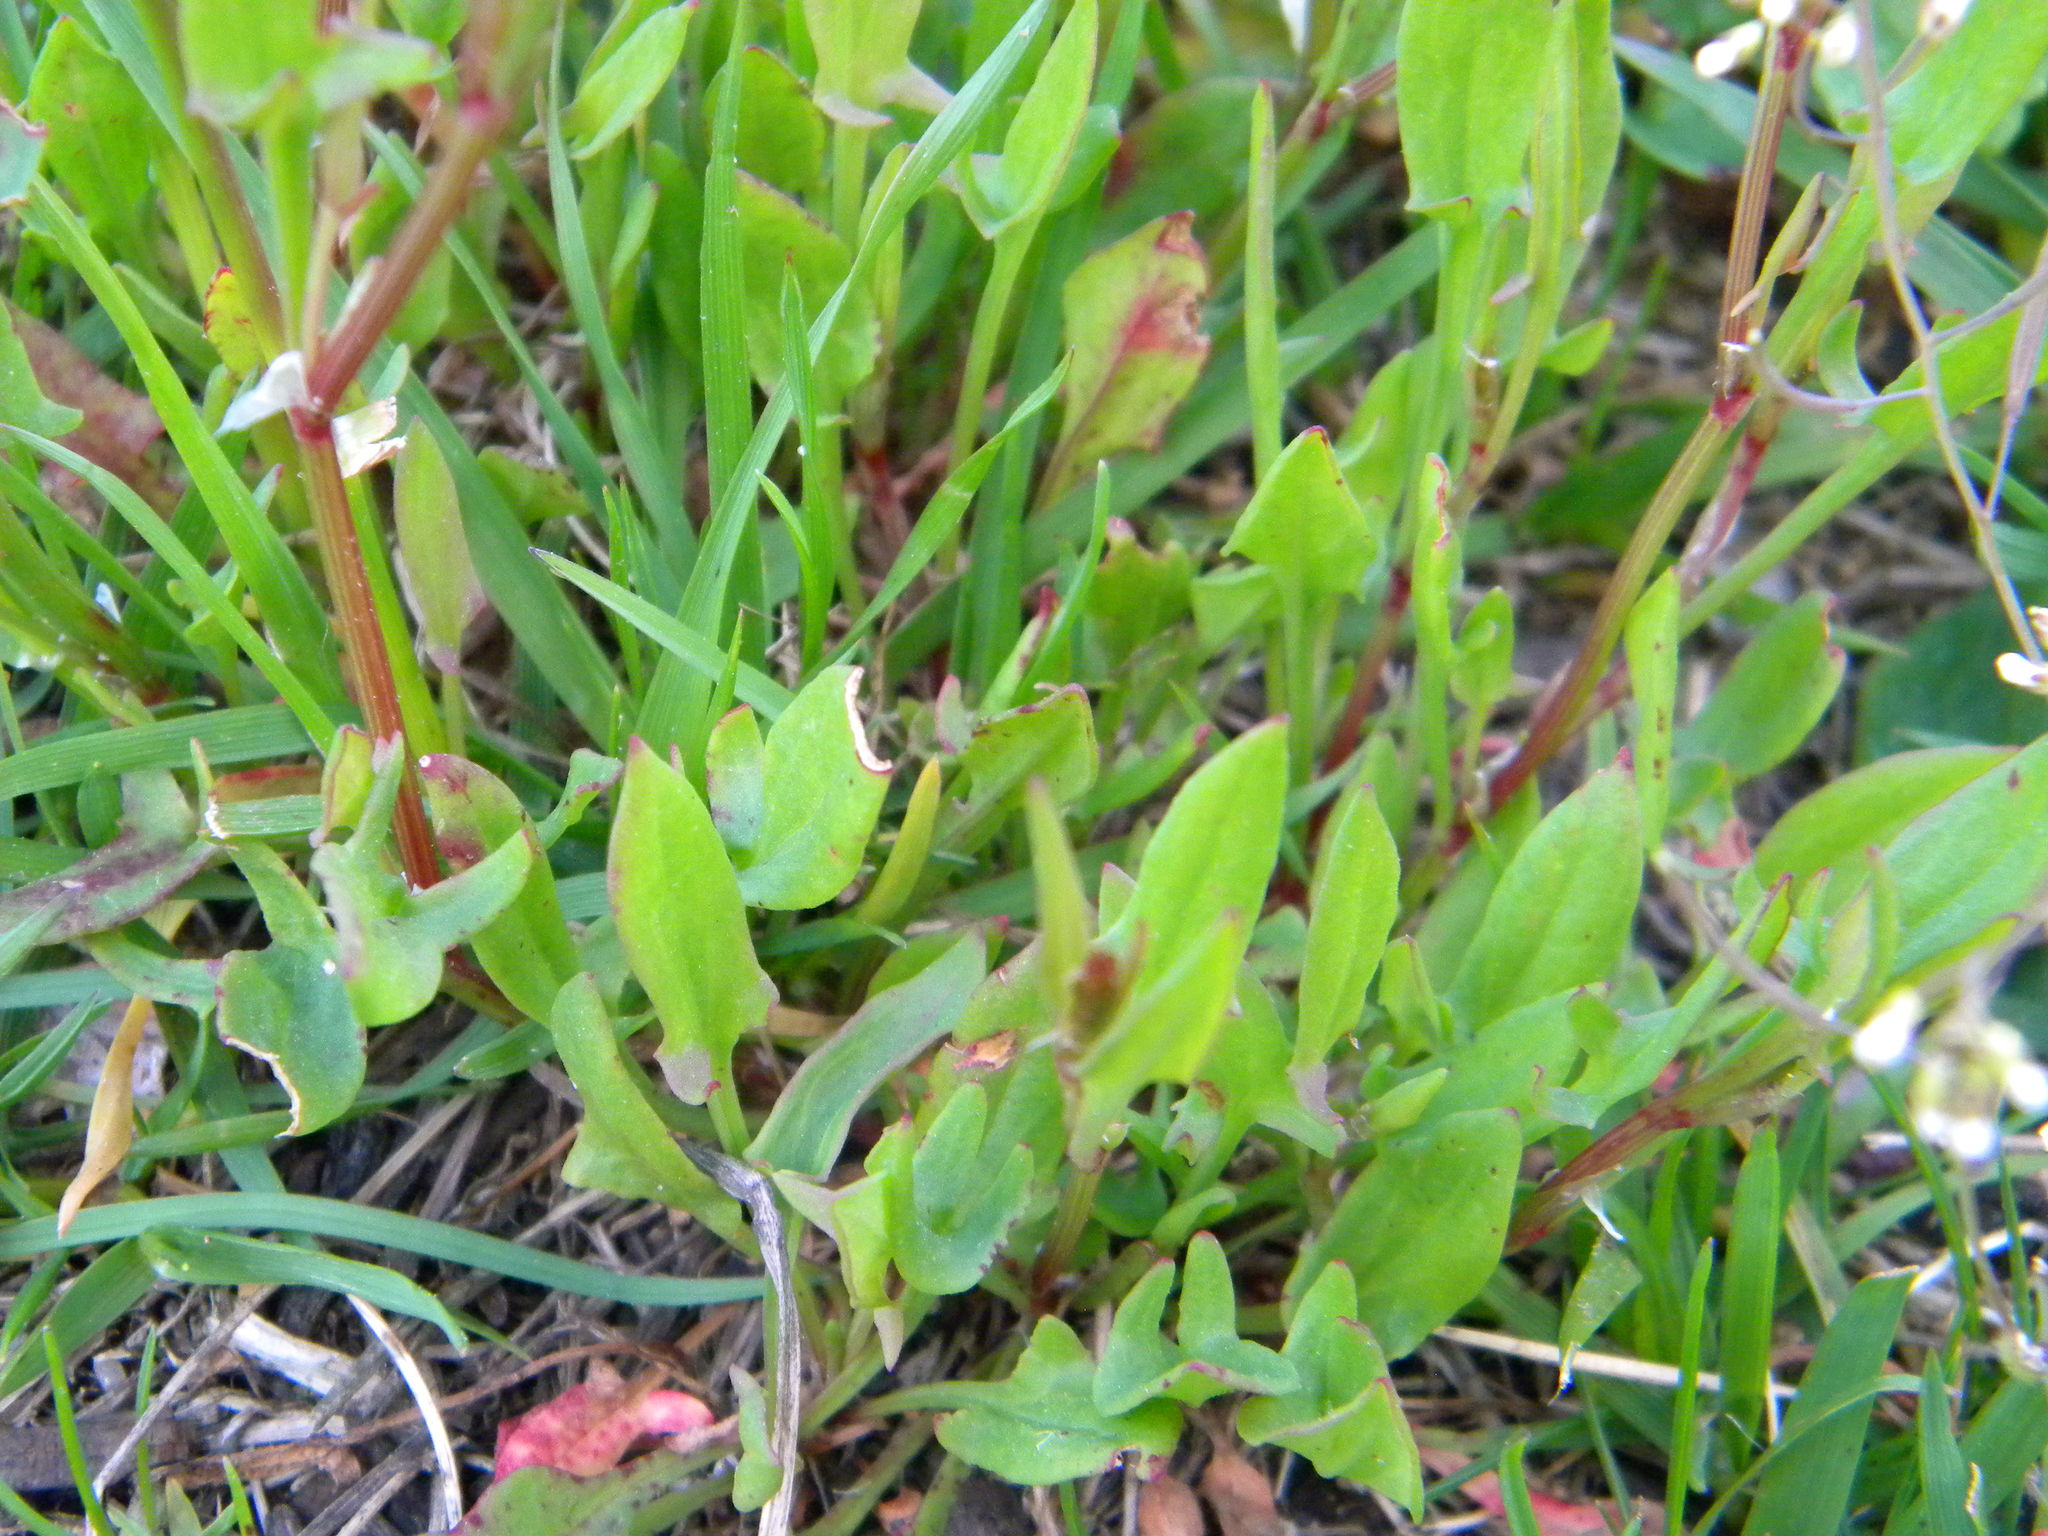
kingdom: Plantae
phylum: Tracheophyta
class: Magnoliopsida
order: Caryophyllales
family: Polygonaceae
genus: Rumex
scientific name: Rumex acetosella
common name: Common sheep sorrel
